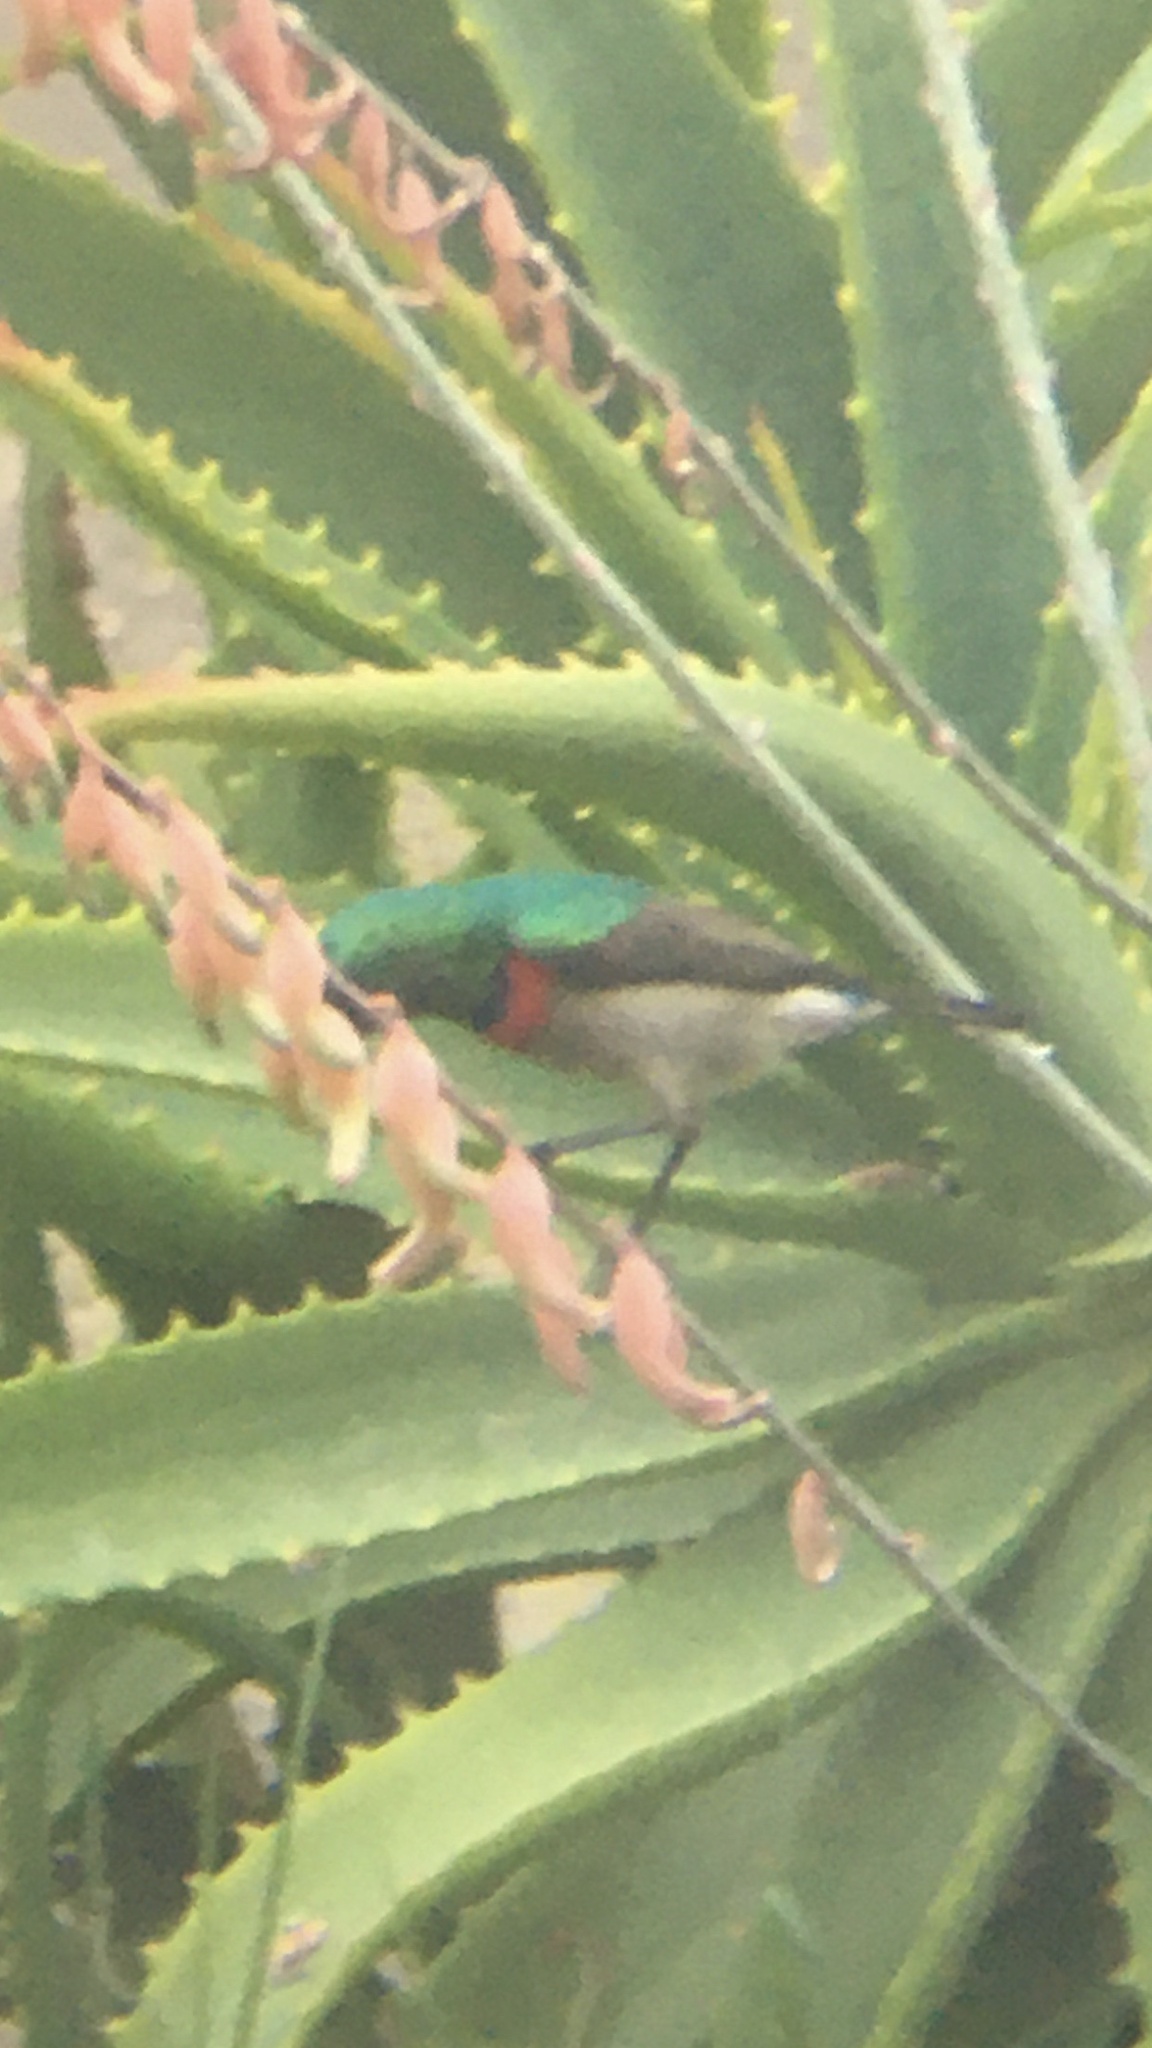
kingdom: Animalia
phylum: Chordata
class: Aves
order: Passeriformes
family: Nectariniidae
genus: Cinnyris
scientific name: Cinnyris chalybeus
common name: Southern double-collared sunbird
